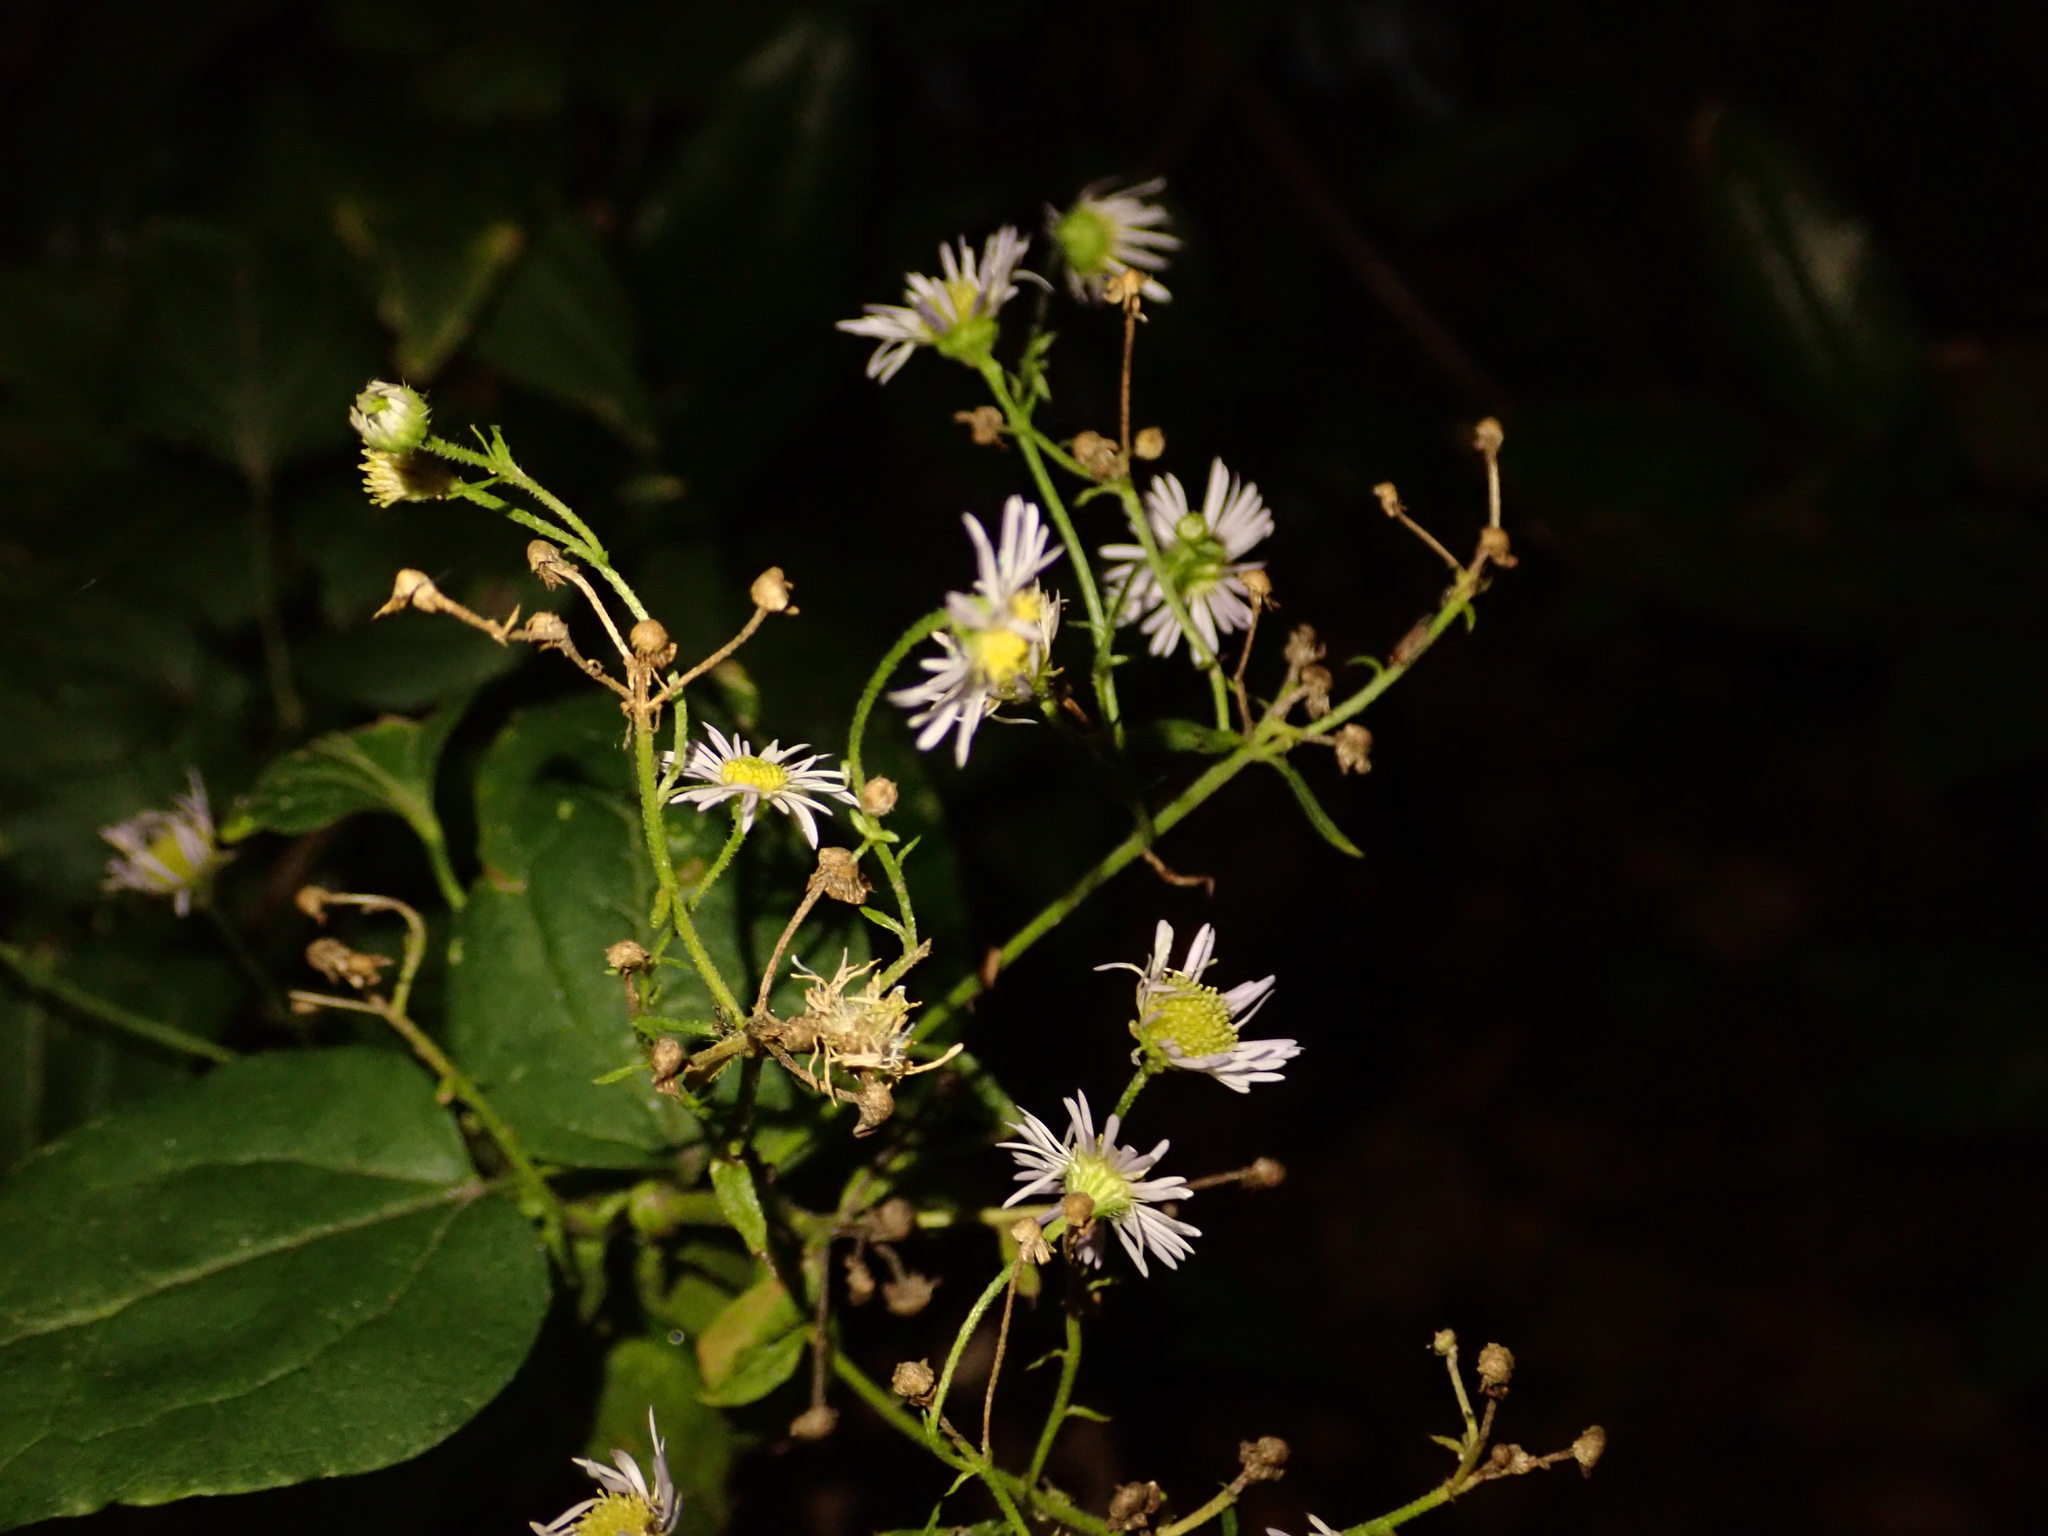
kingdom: Plantae
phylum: Tracheophyta
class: Magnoliopsida
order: Asterales
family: Asteraceae
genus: Erigeron
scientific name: Erigeron annuus
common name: Tall fleabane
